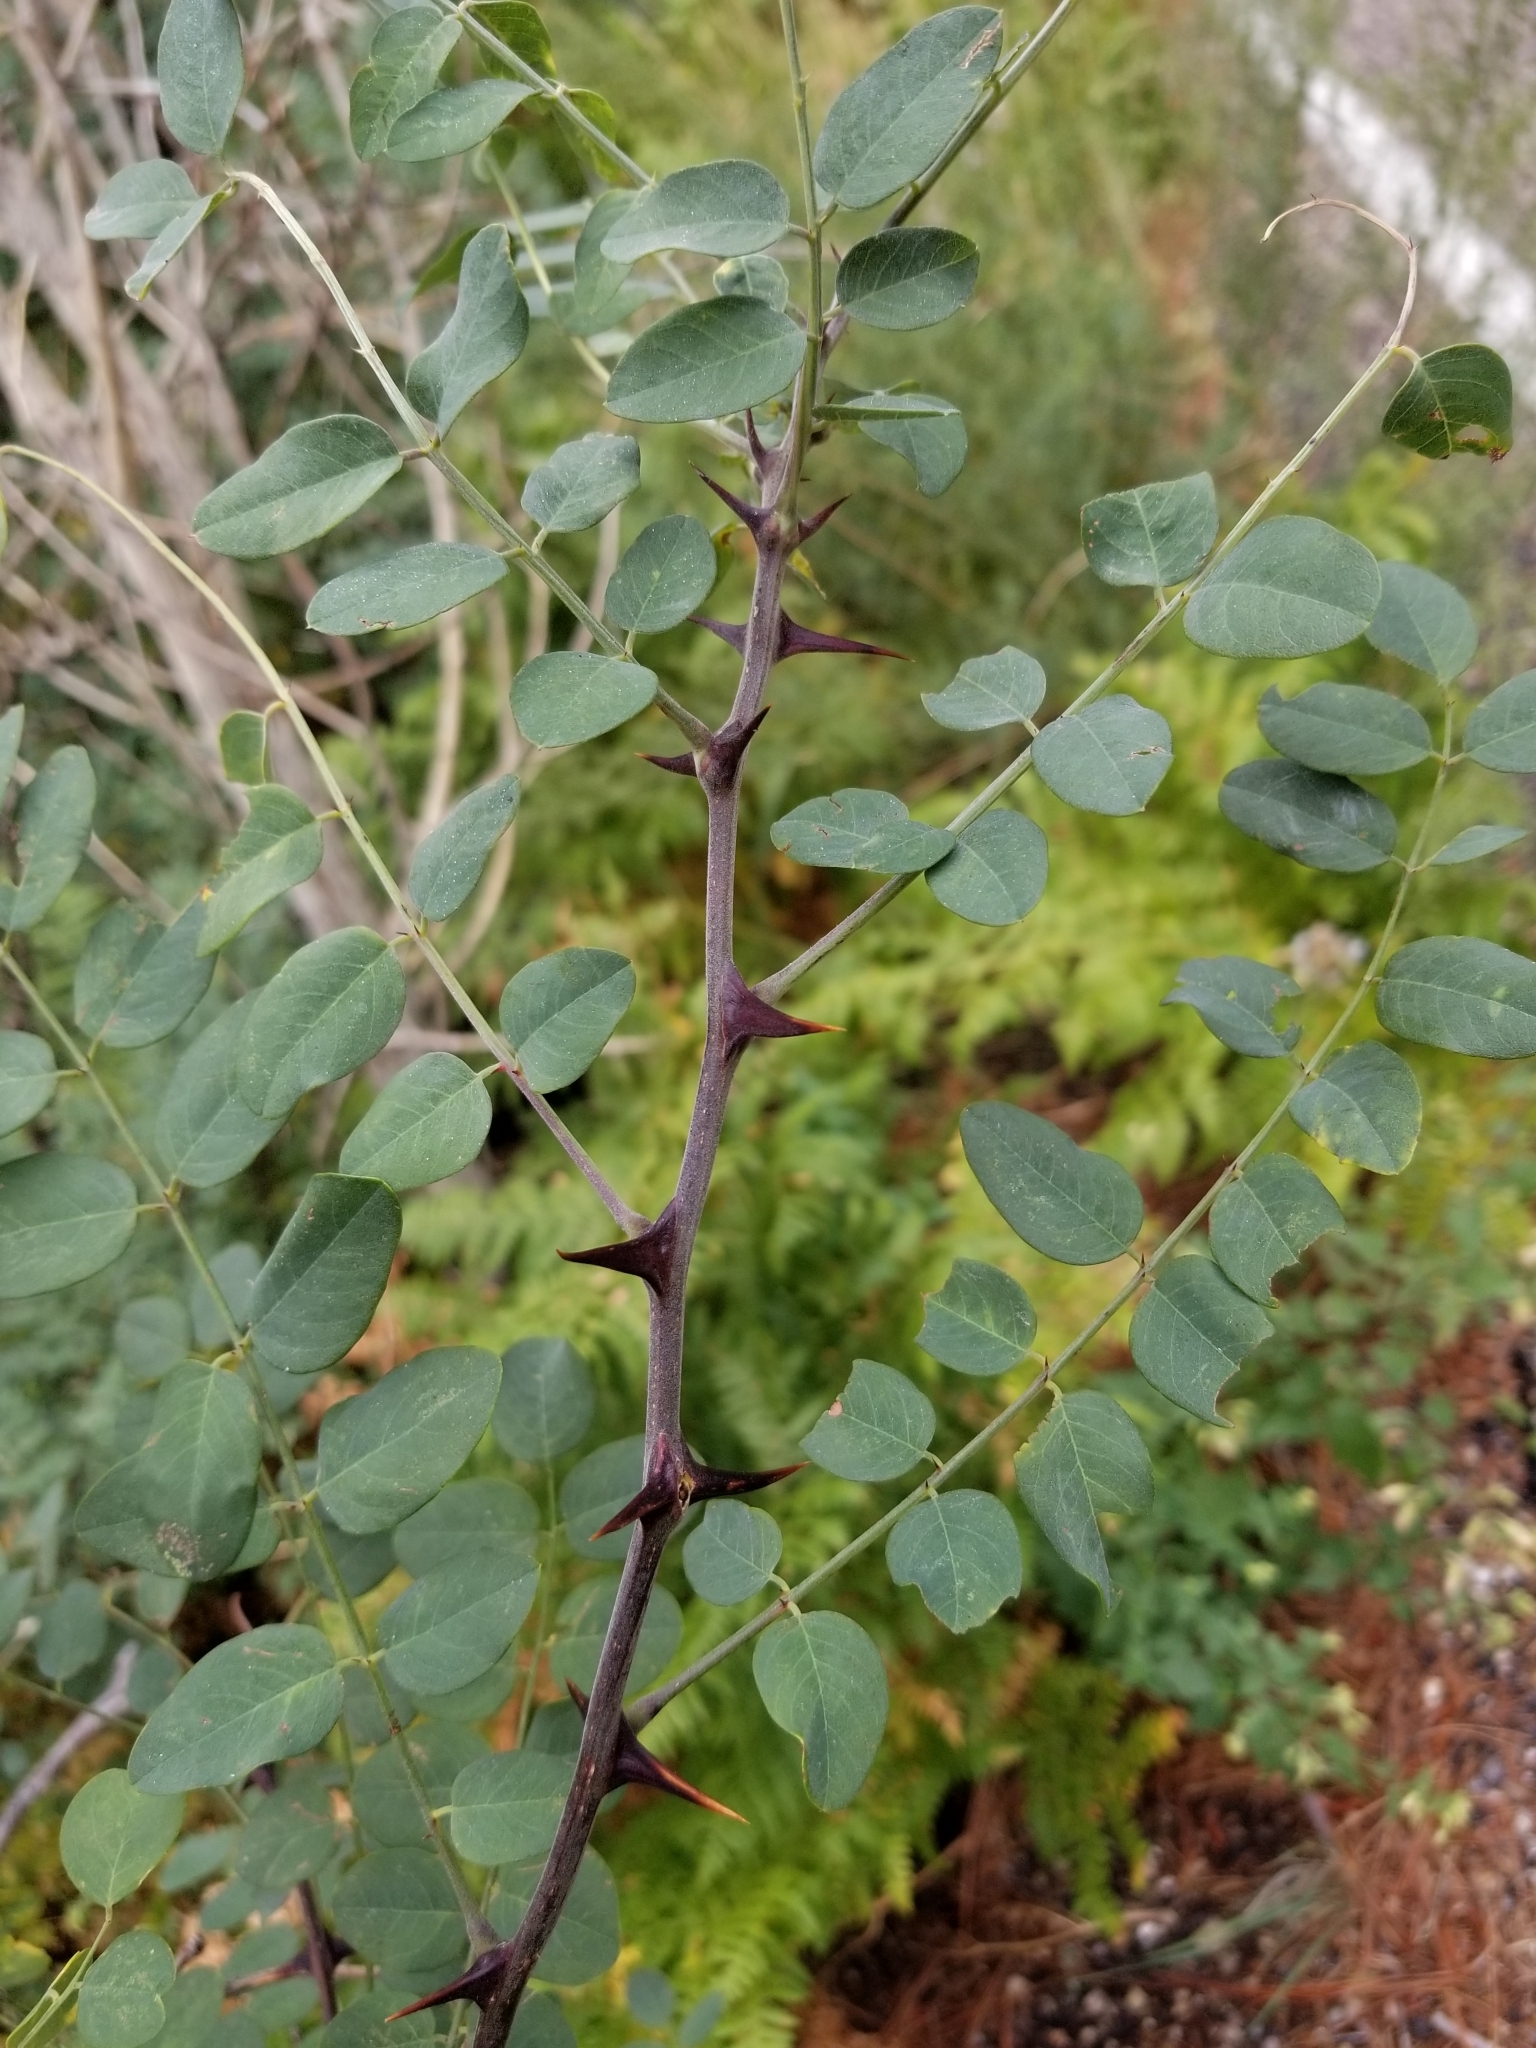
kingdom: Plantae
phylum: Tracheophyta
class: Magnoliopsida
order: Fabales
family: Fabaceae
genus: Robinia
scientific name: Robinia neomexicana
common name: New mexico locust
